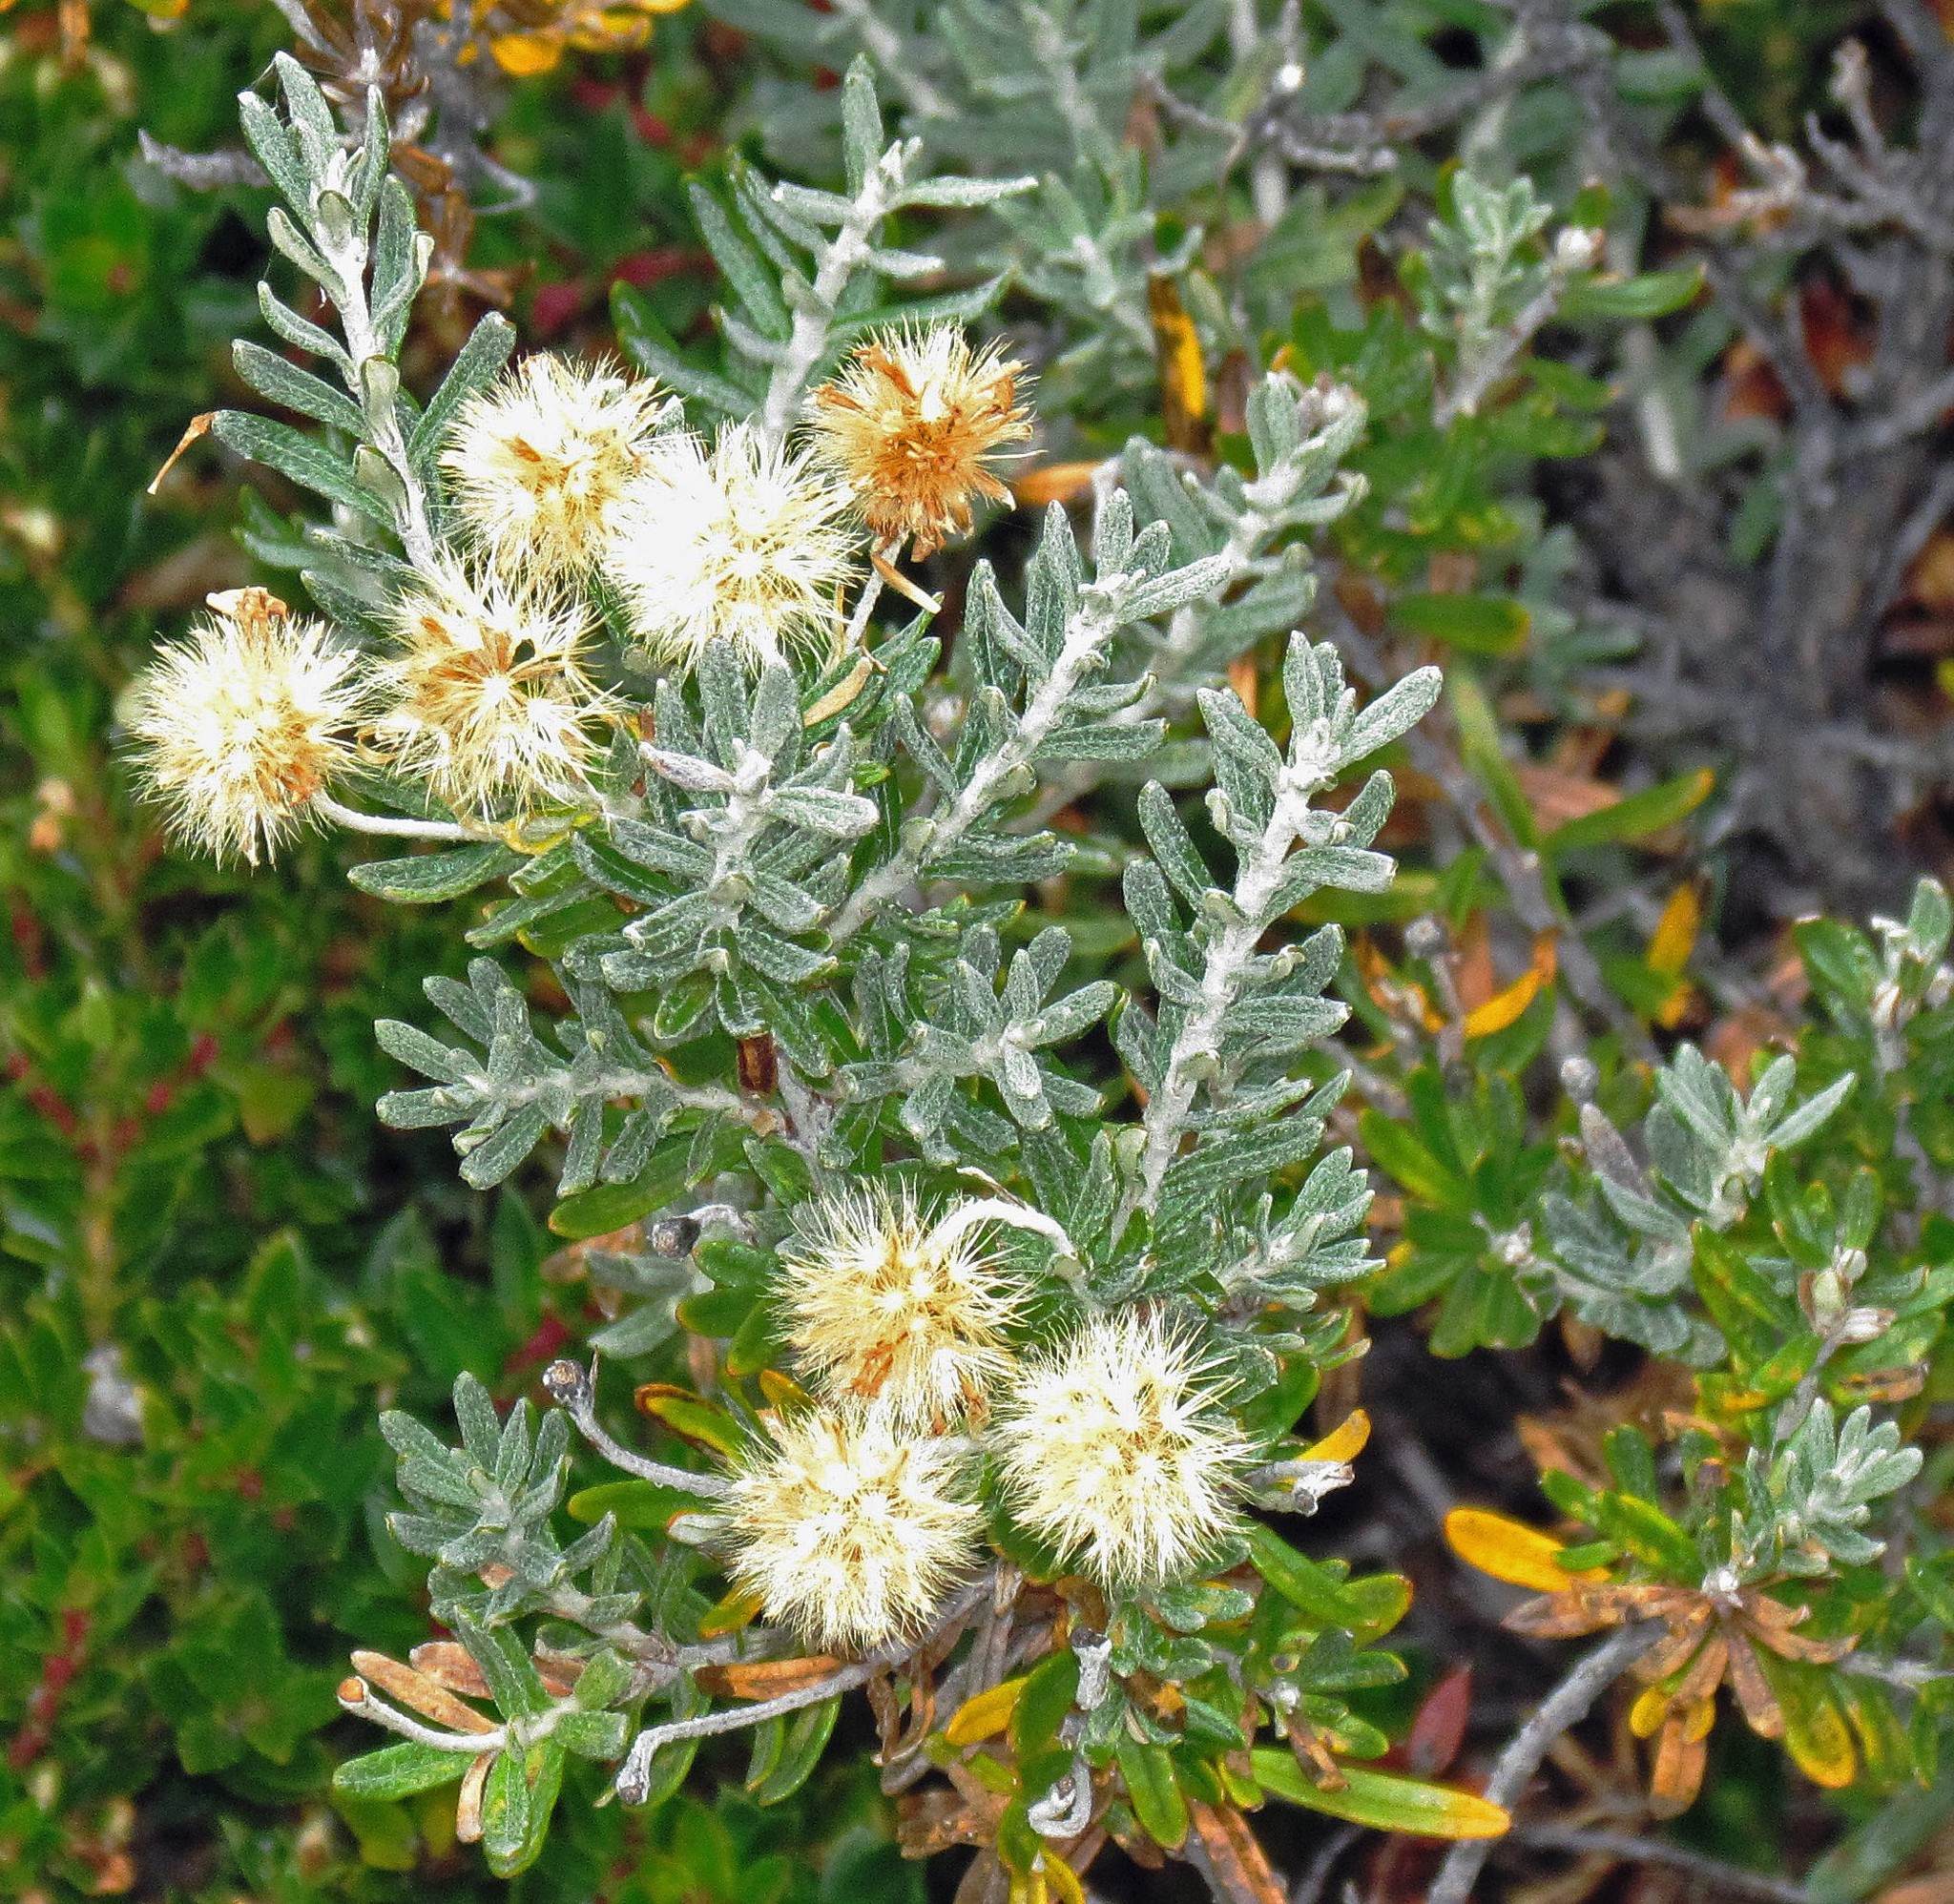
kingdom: Plantae
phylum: Tracheophyta
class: Magnoliopsida
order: Asterales
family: Asteraceae
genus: Chiliotrichum
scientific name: Chiliotrichum diffusum
